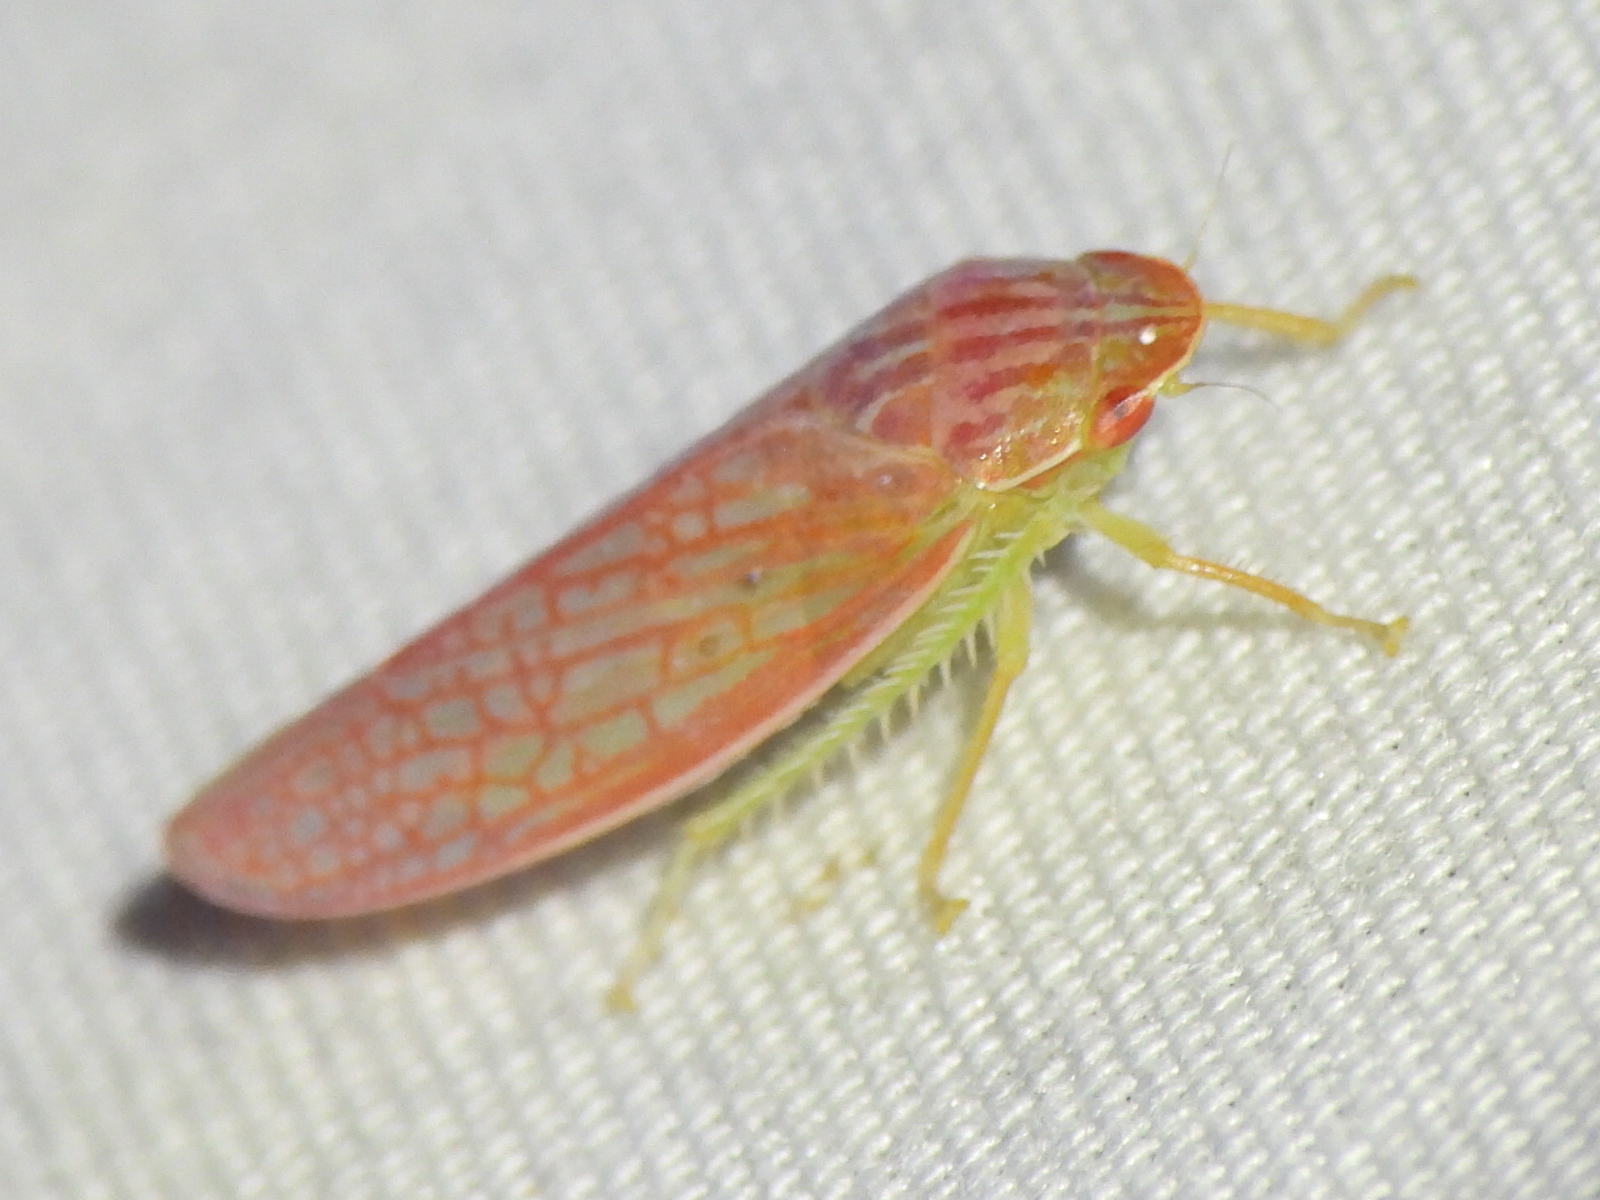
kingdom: Animalia
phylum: Arthropoda
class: Insecta
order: Hemiptera
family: Cicadellidae
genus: Gyponana
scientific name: Gyponana gladia
